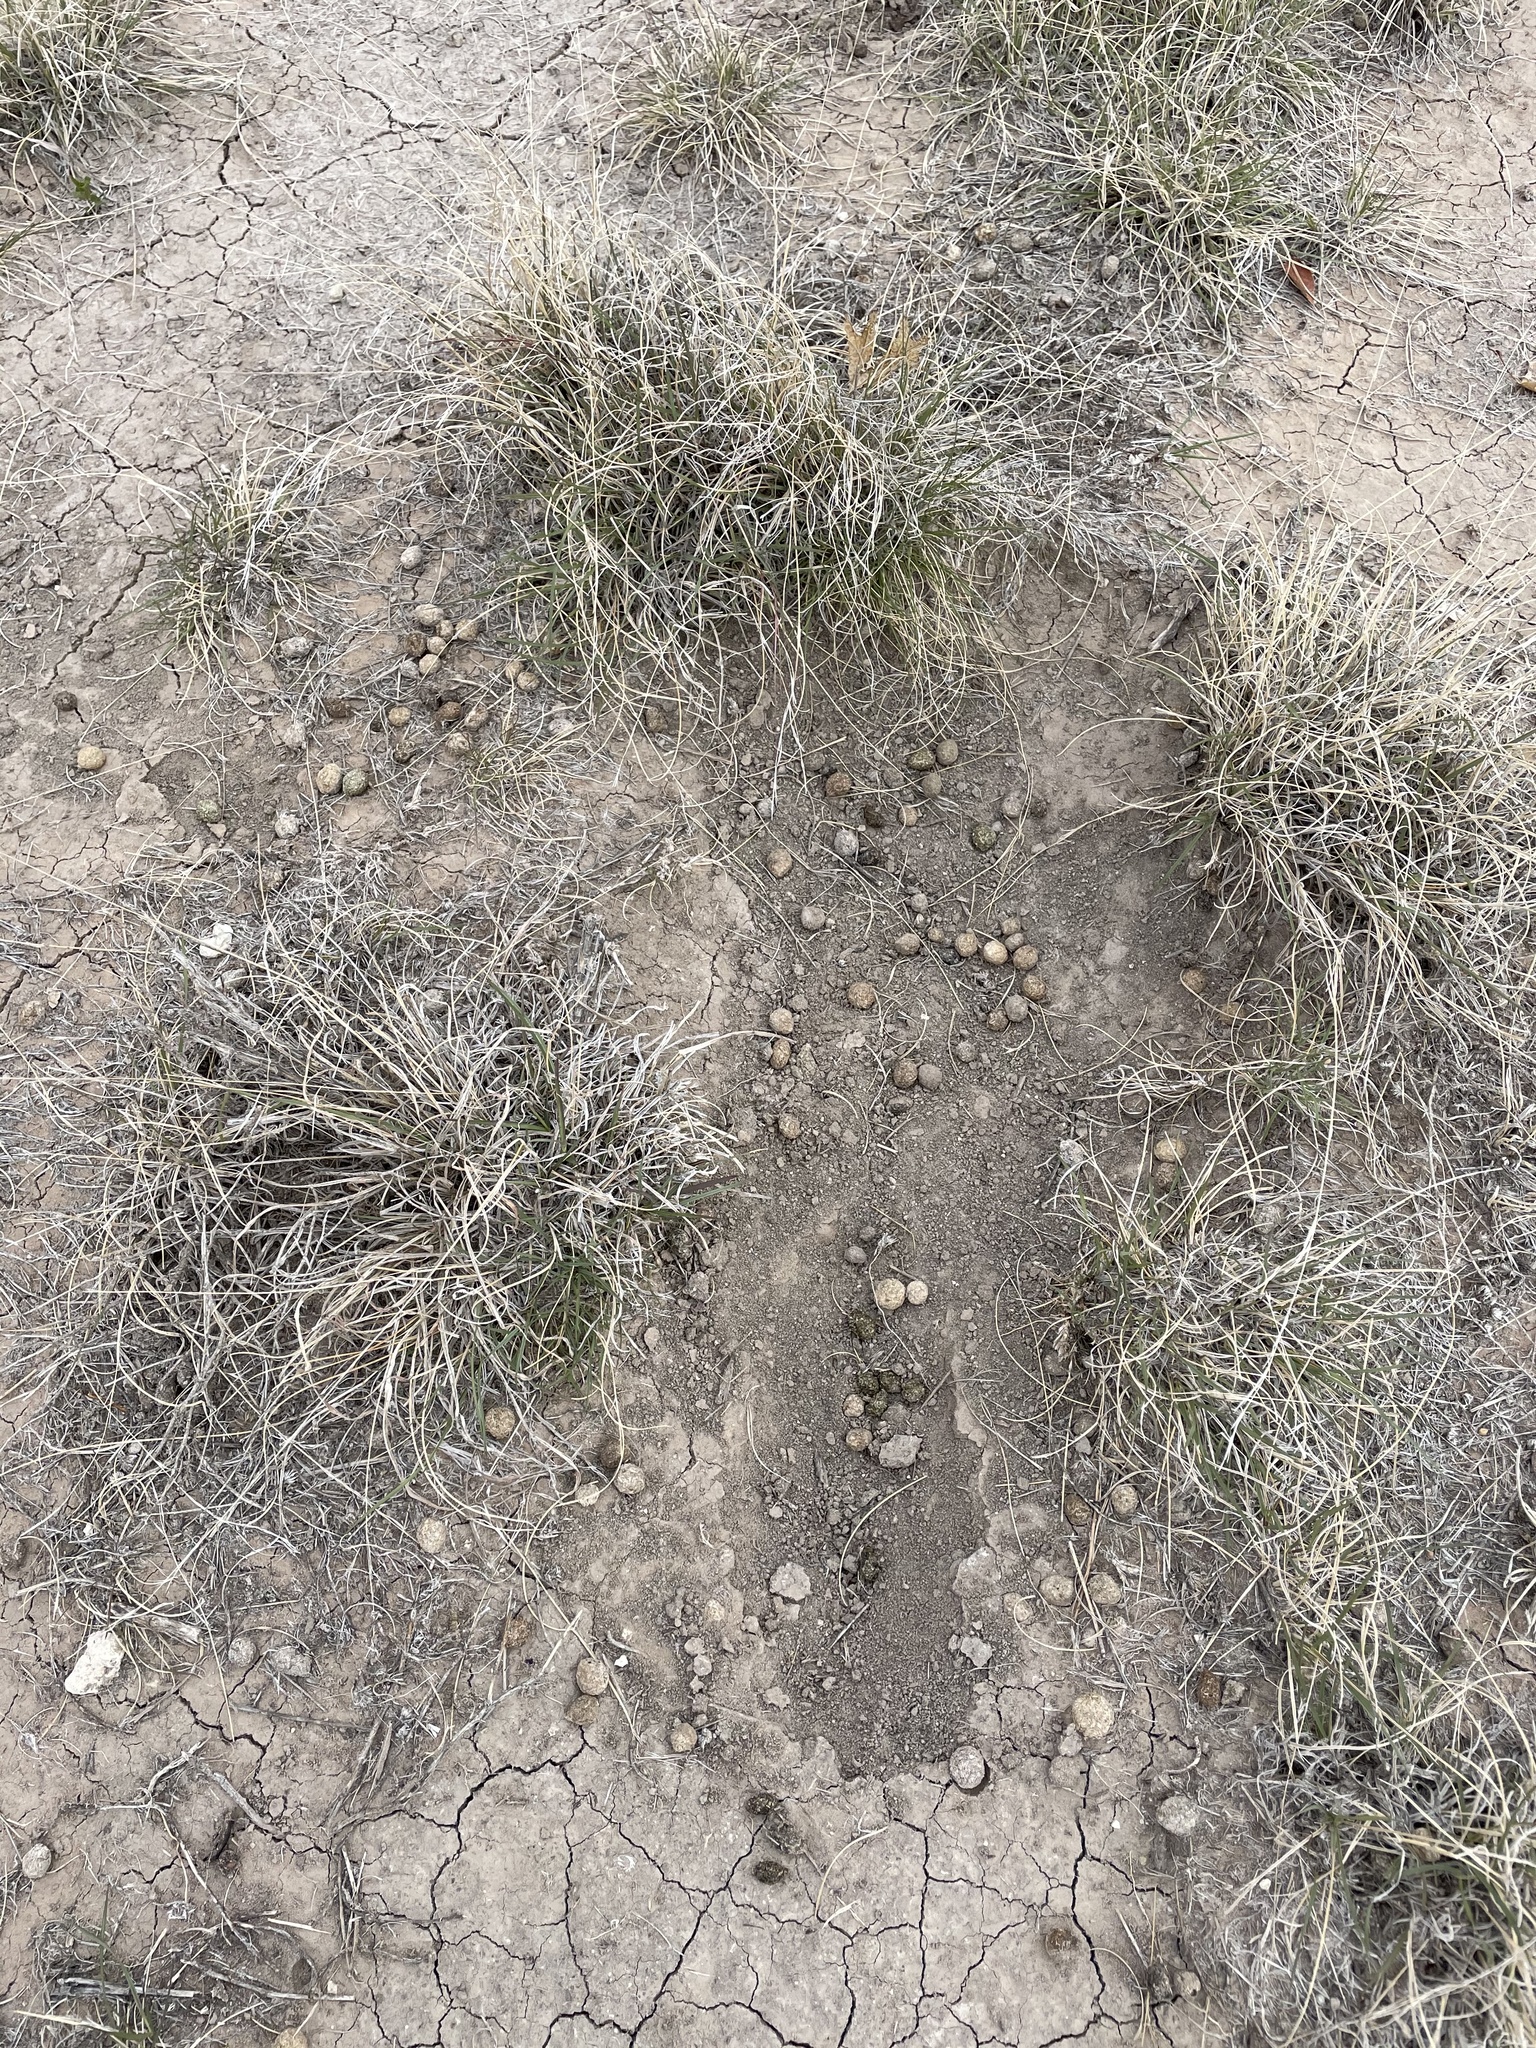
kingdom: Animalia
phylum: Chordata
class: Mammalia
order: Lagomorpha
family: Leporidae
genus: Lepus
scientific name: Lepus californicus
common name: Black-tailed jackrabbit
